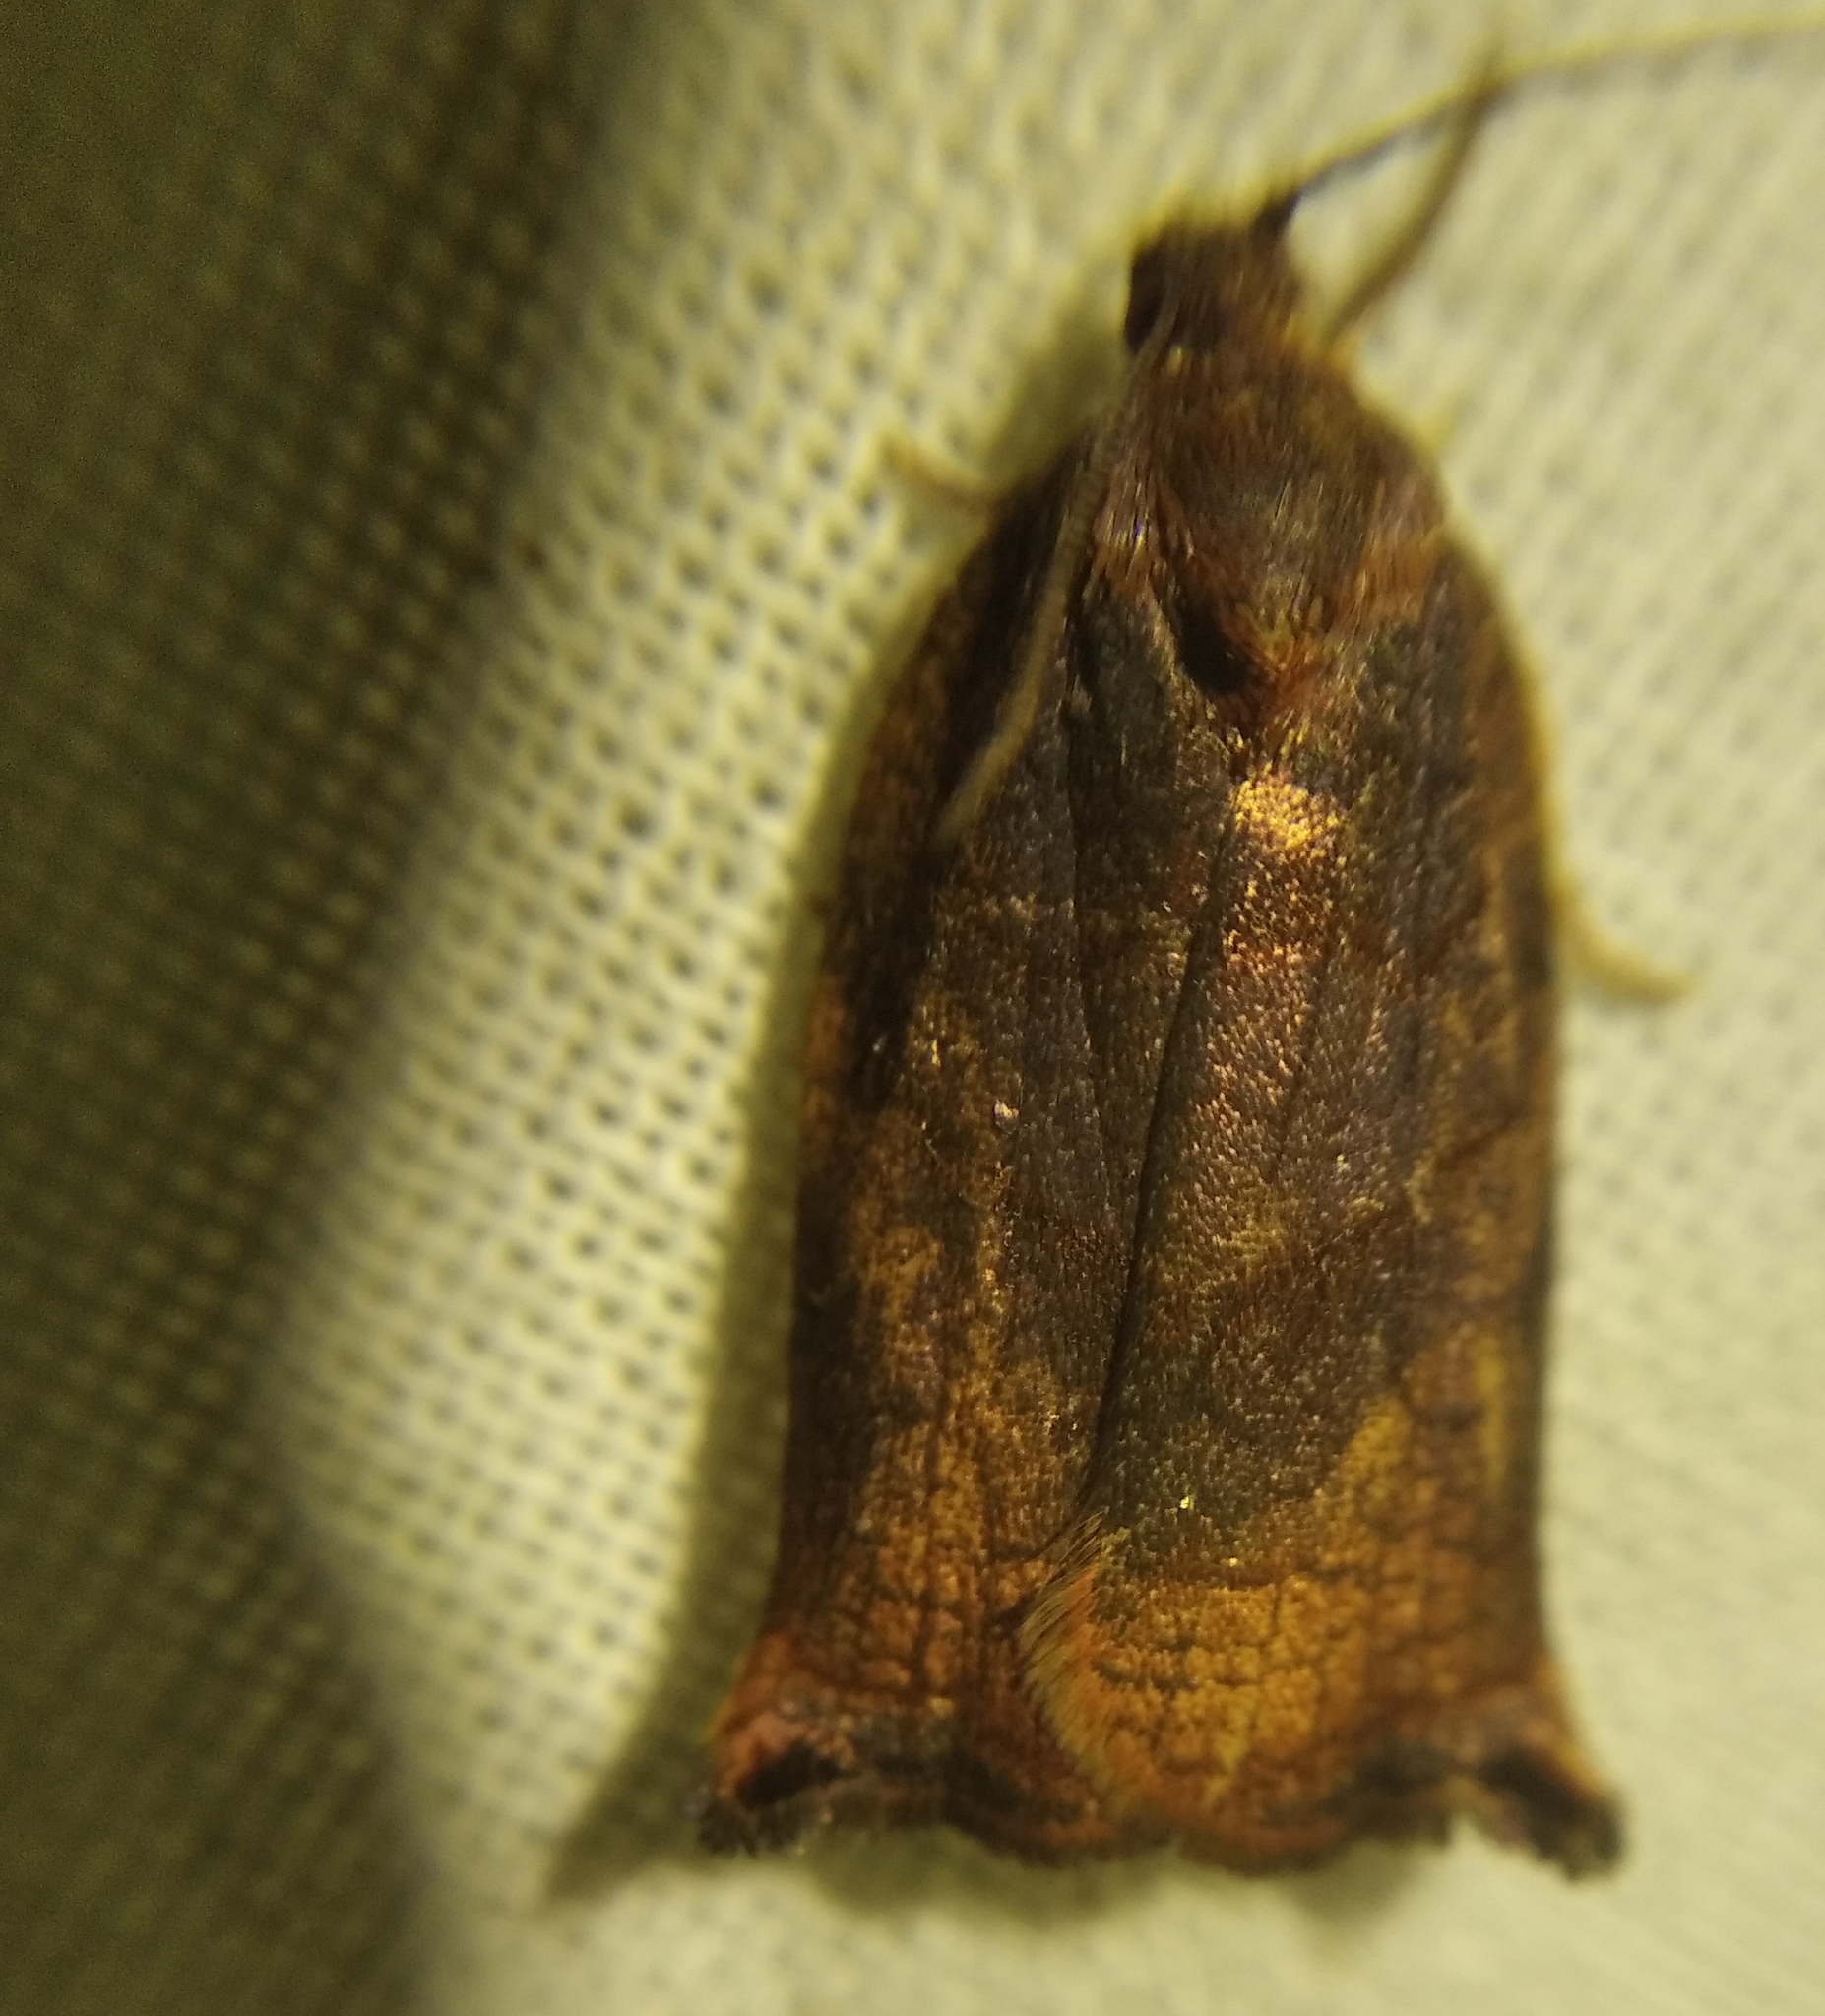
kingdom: Animalia
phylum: Arthropoda
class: Insecta
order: Lepidoptera
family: Tortricidae
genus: Archips
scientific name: Archips podana
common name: Large fruit-tree tortrix
